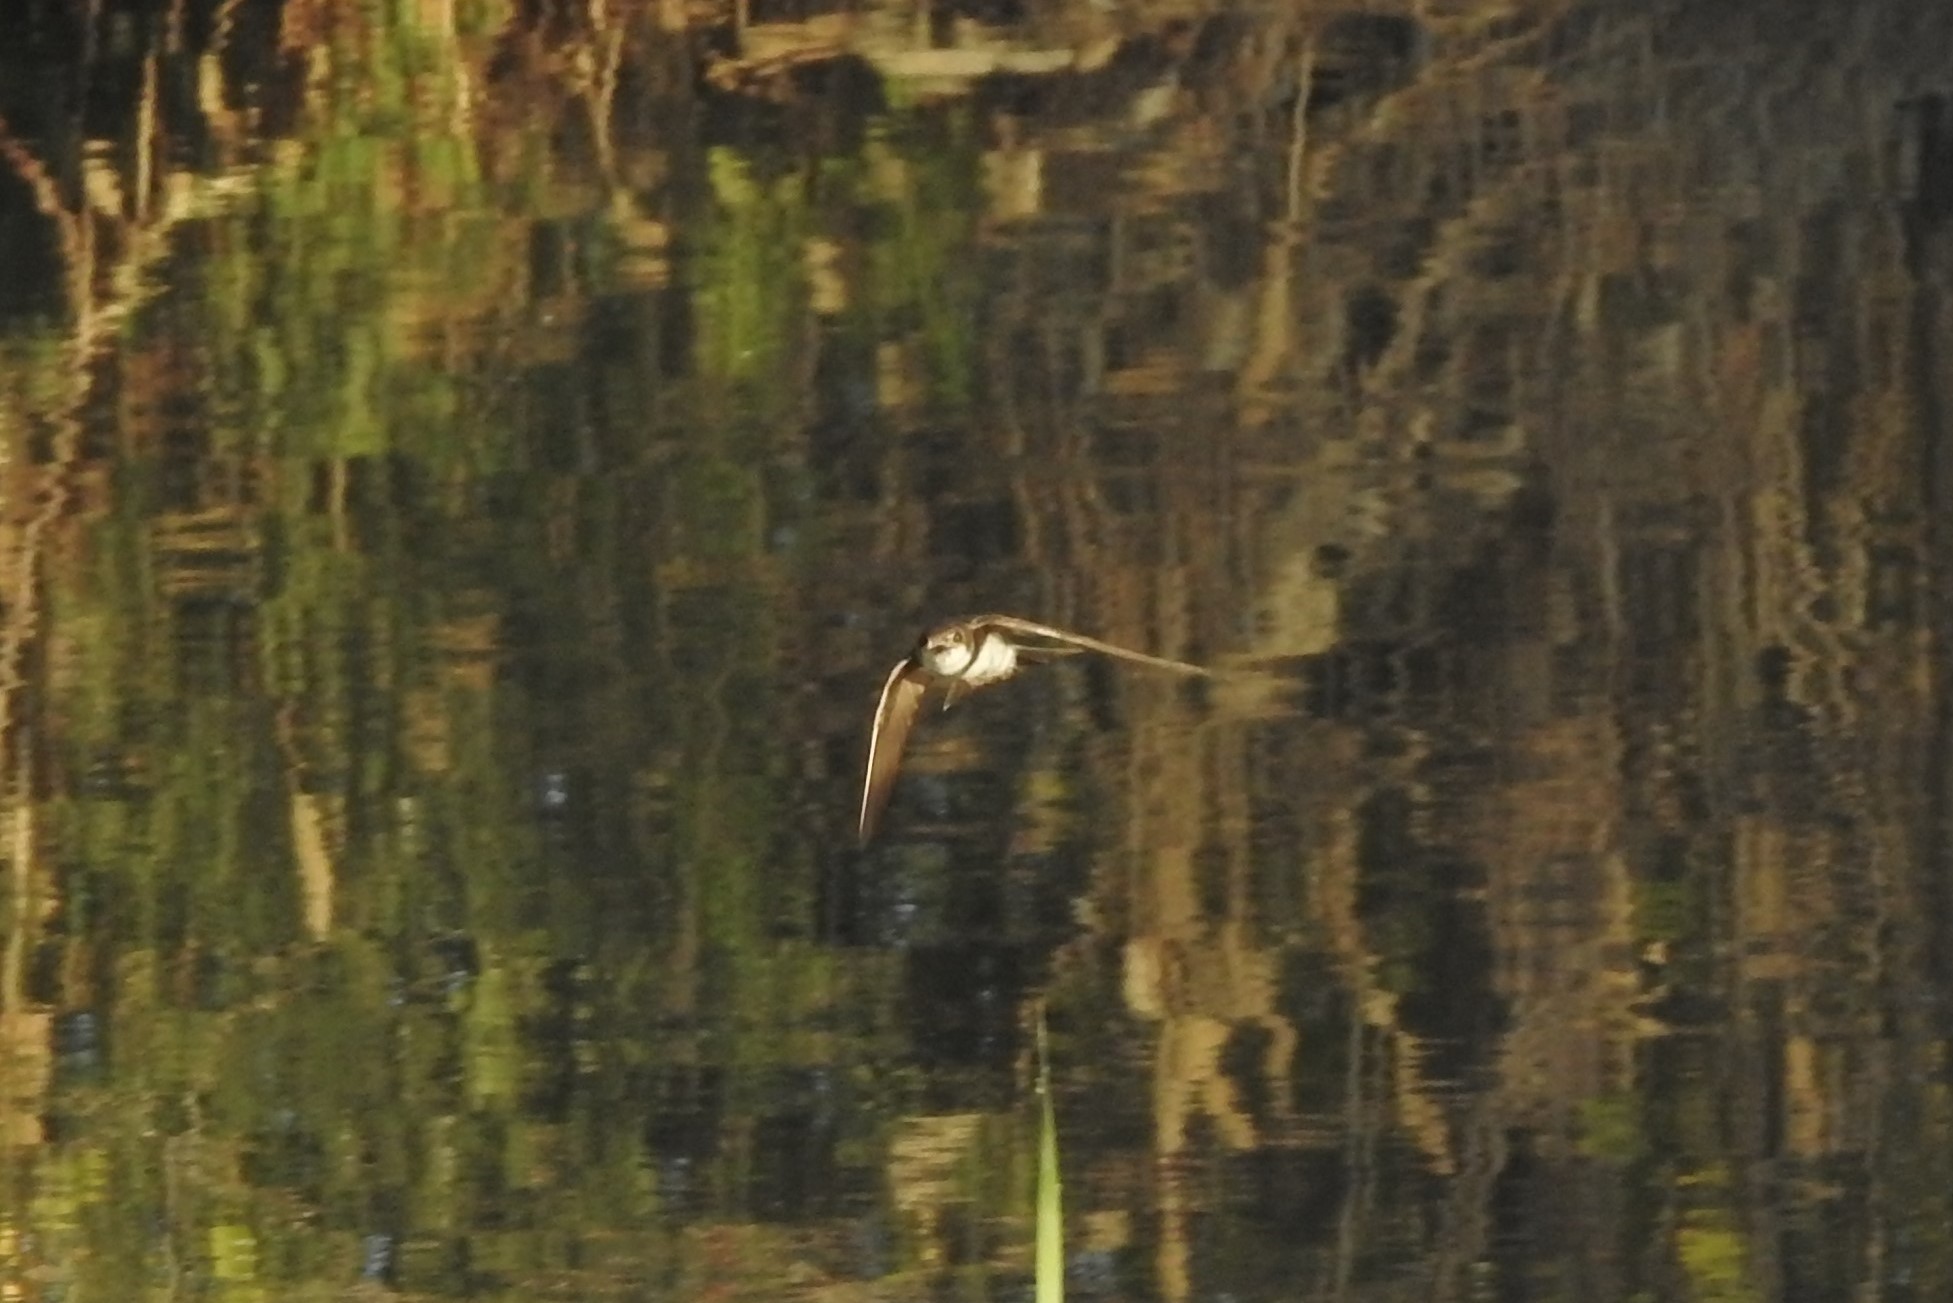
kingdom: Animalia
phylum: Chordata
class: Aves
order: Passeriformes
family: Hirundinidae
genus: Riparia
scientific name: Riparia riparia
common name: Sand martin
